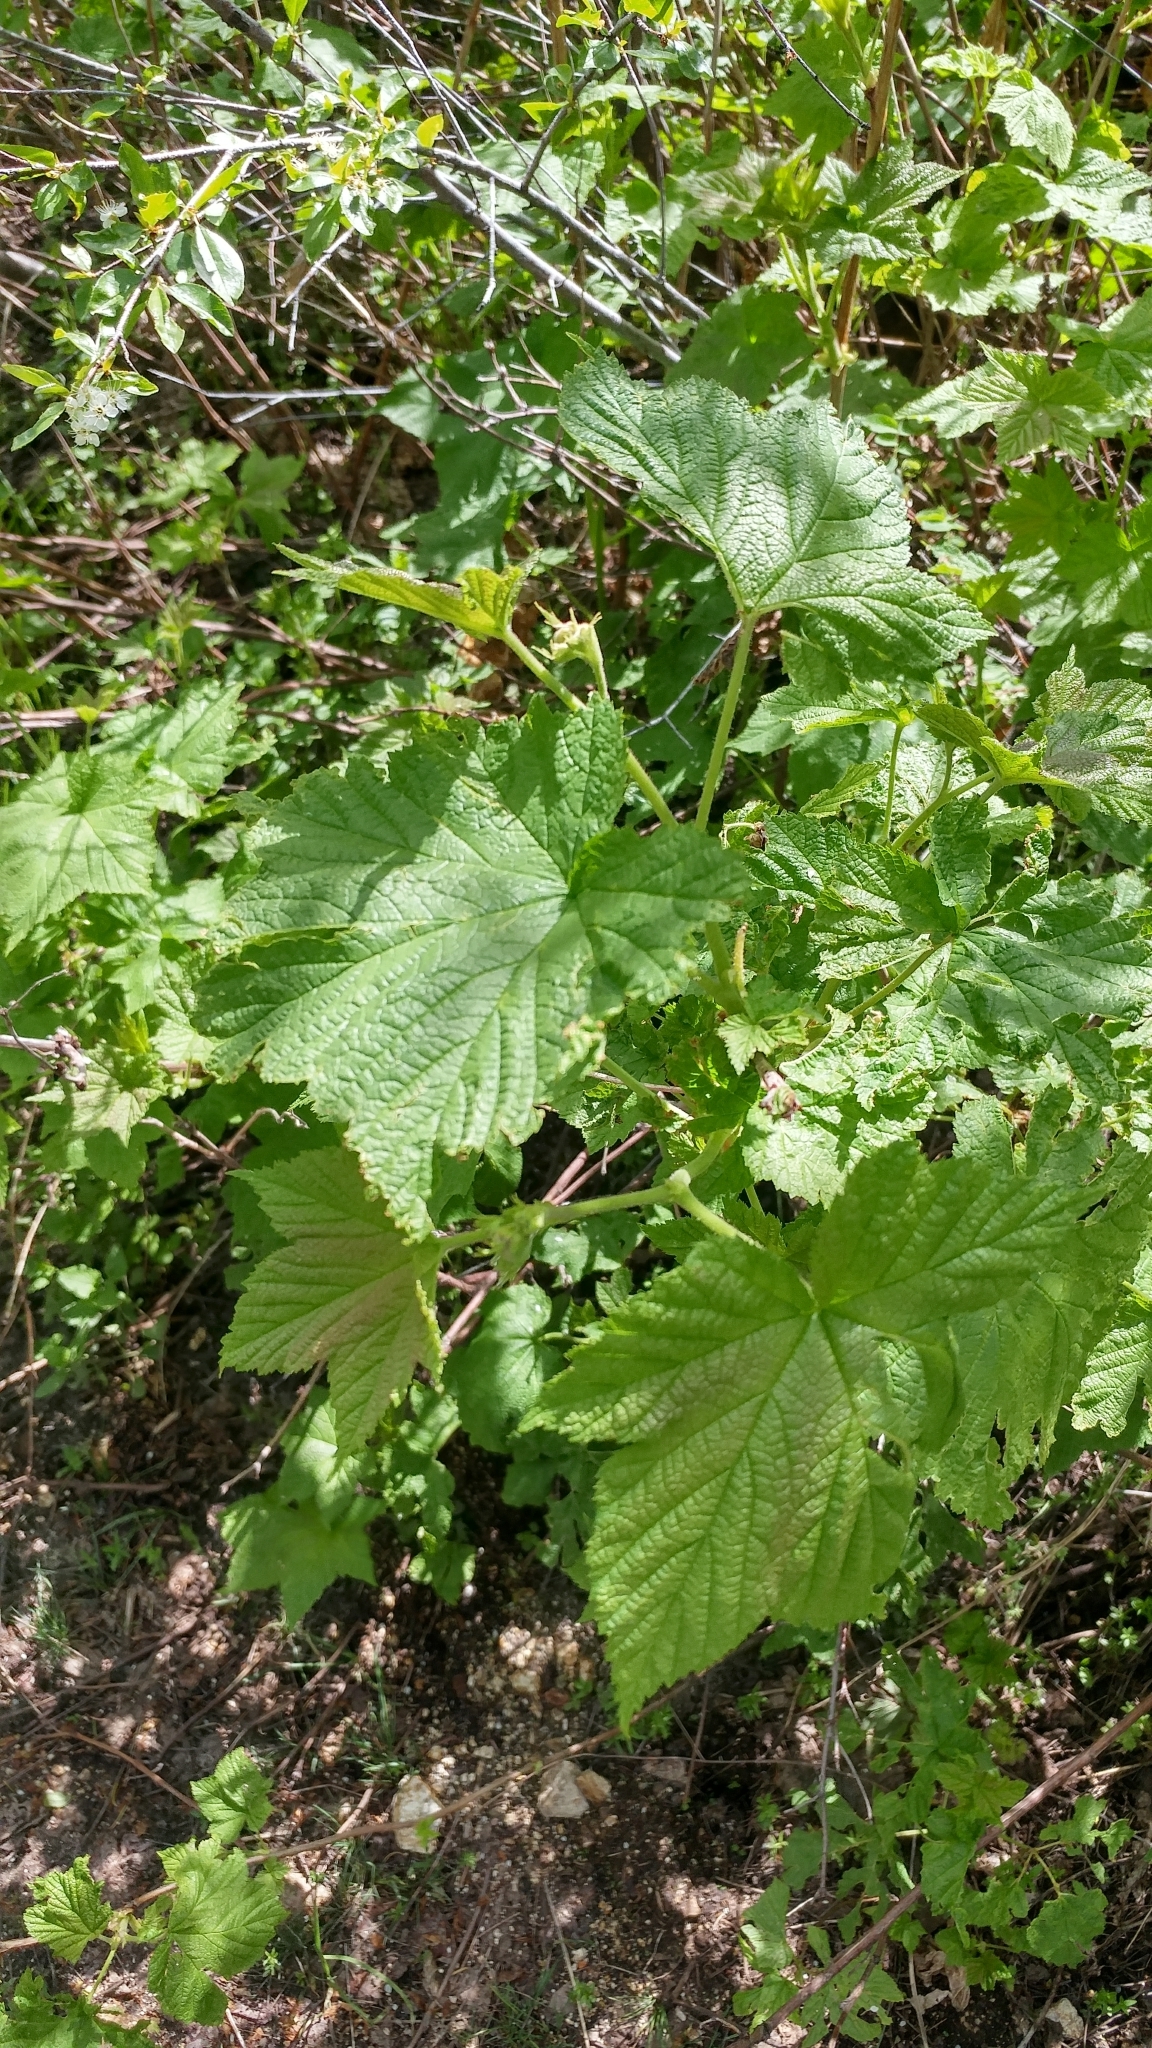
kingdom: Plantae
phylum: Tracheophyta
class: Magnoliopsida
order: Rosales
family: Rosaceae
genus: Rubus
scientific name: Rubus parviflorus
